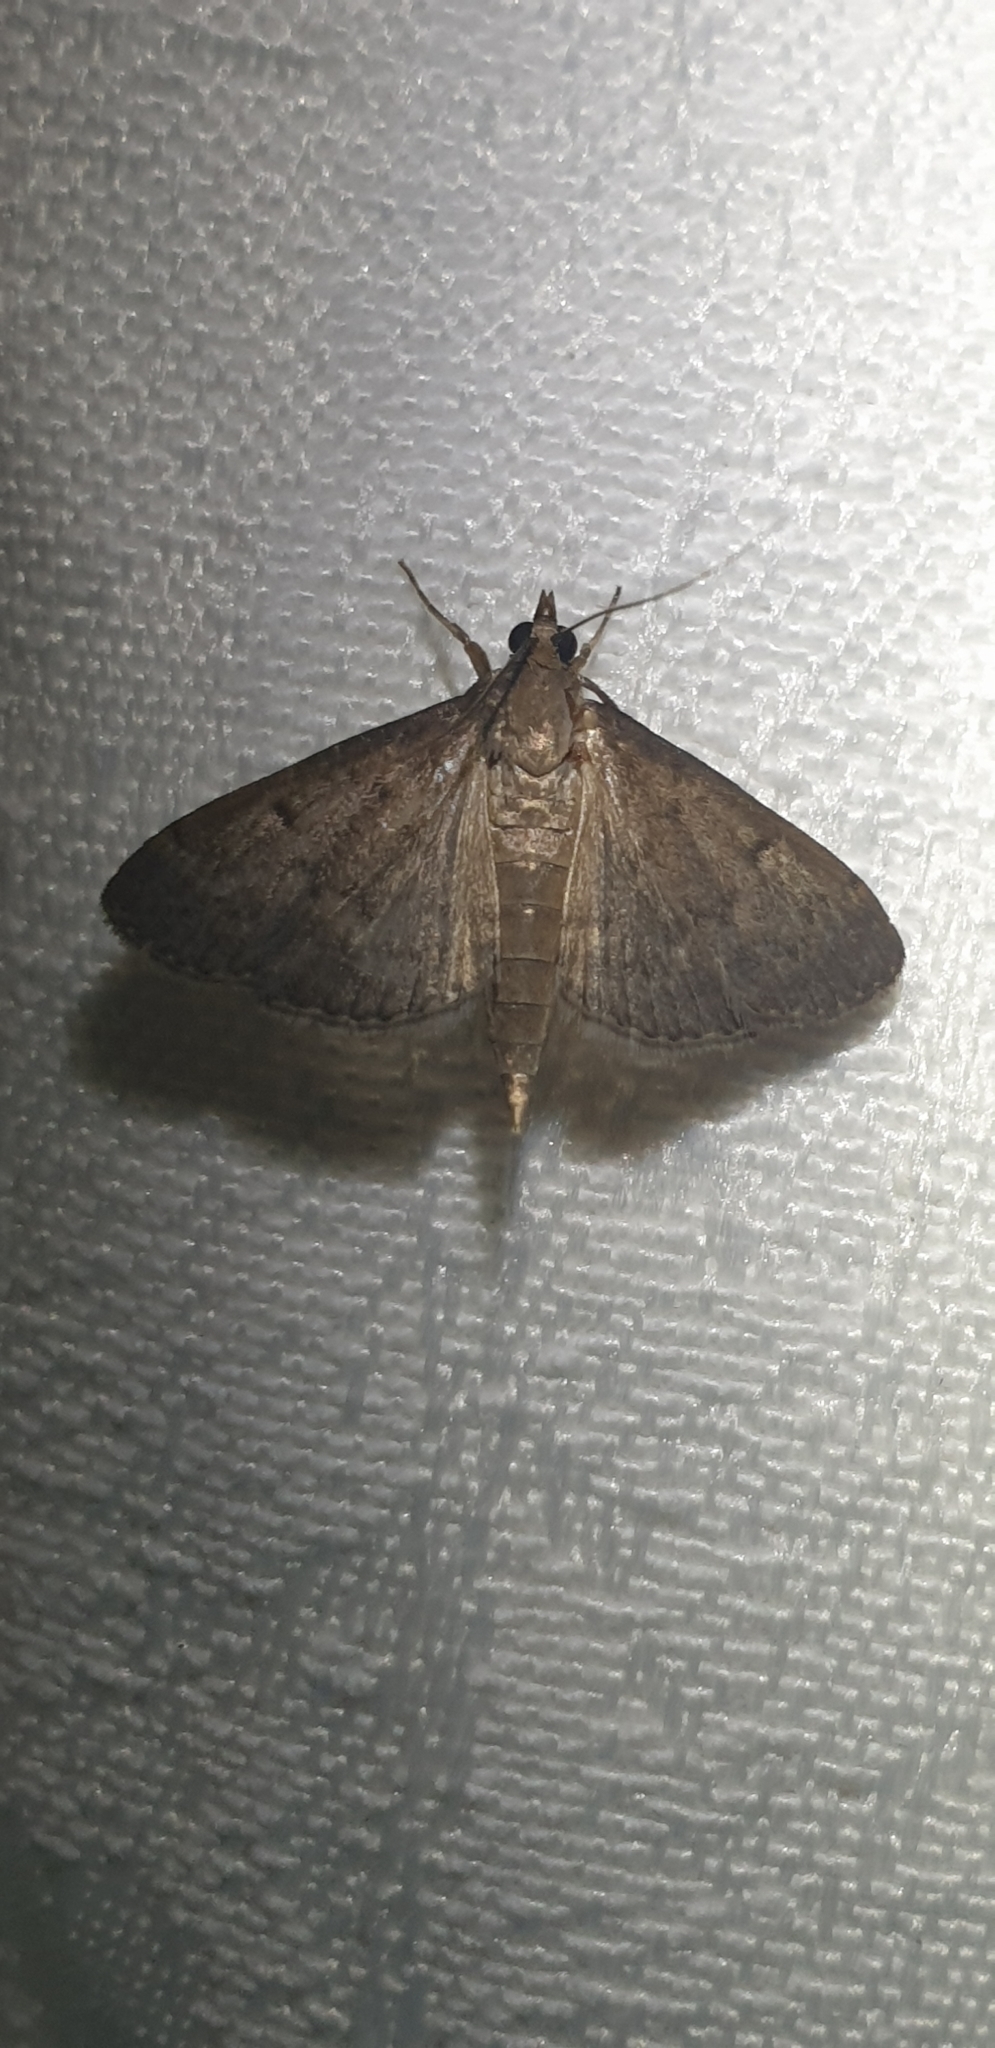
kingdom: Animalia
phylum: Arthropoda
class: Insecta
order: Lepidoptera
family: Crambidae
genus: Herpetogramma
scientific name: Herpetogramma licarsisalis
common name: Grass webworm
